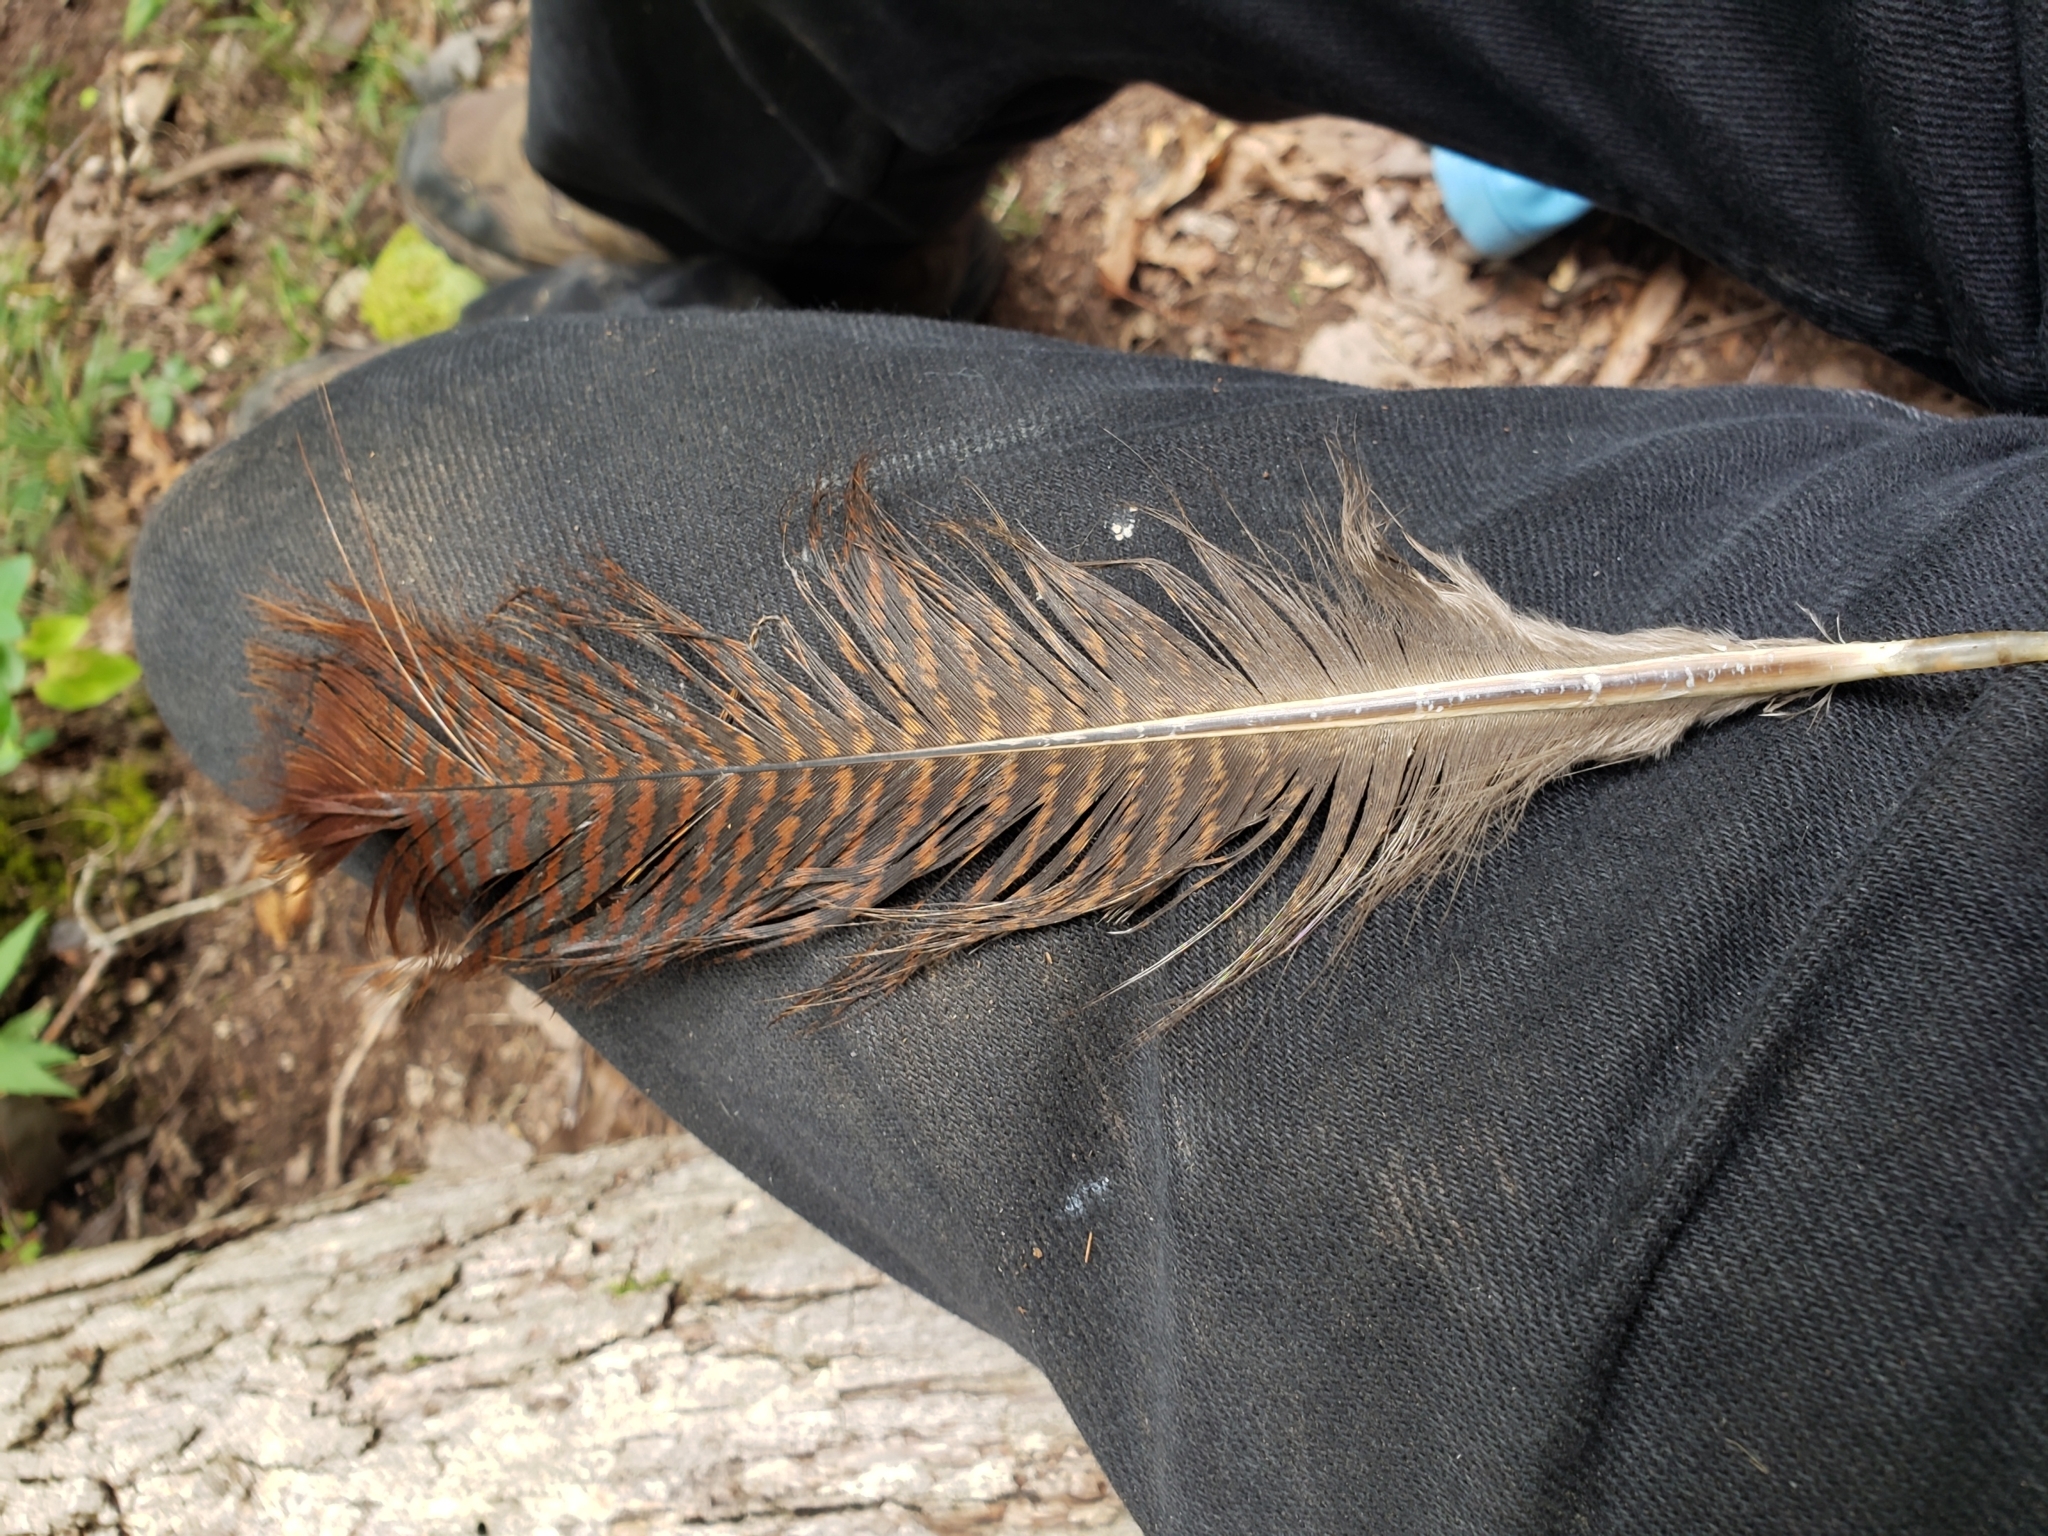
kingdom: Animalia
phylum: Chordata
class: Aves
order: Galliformes
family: Phasianidae
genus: Meleagris
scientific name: Meleagris gallopavo
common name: Wild turkey
